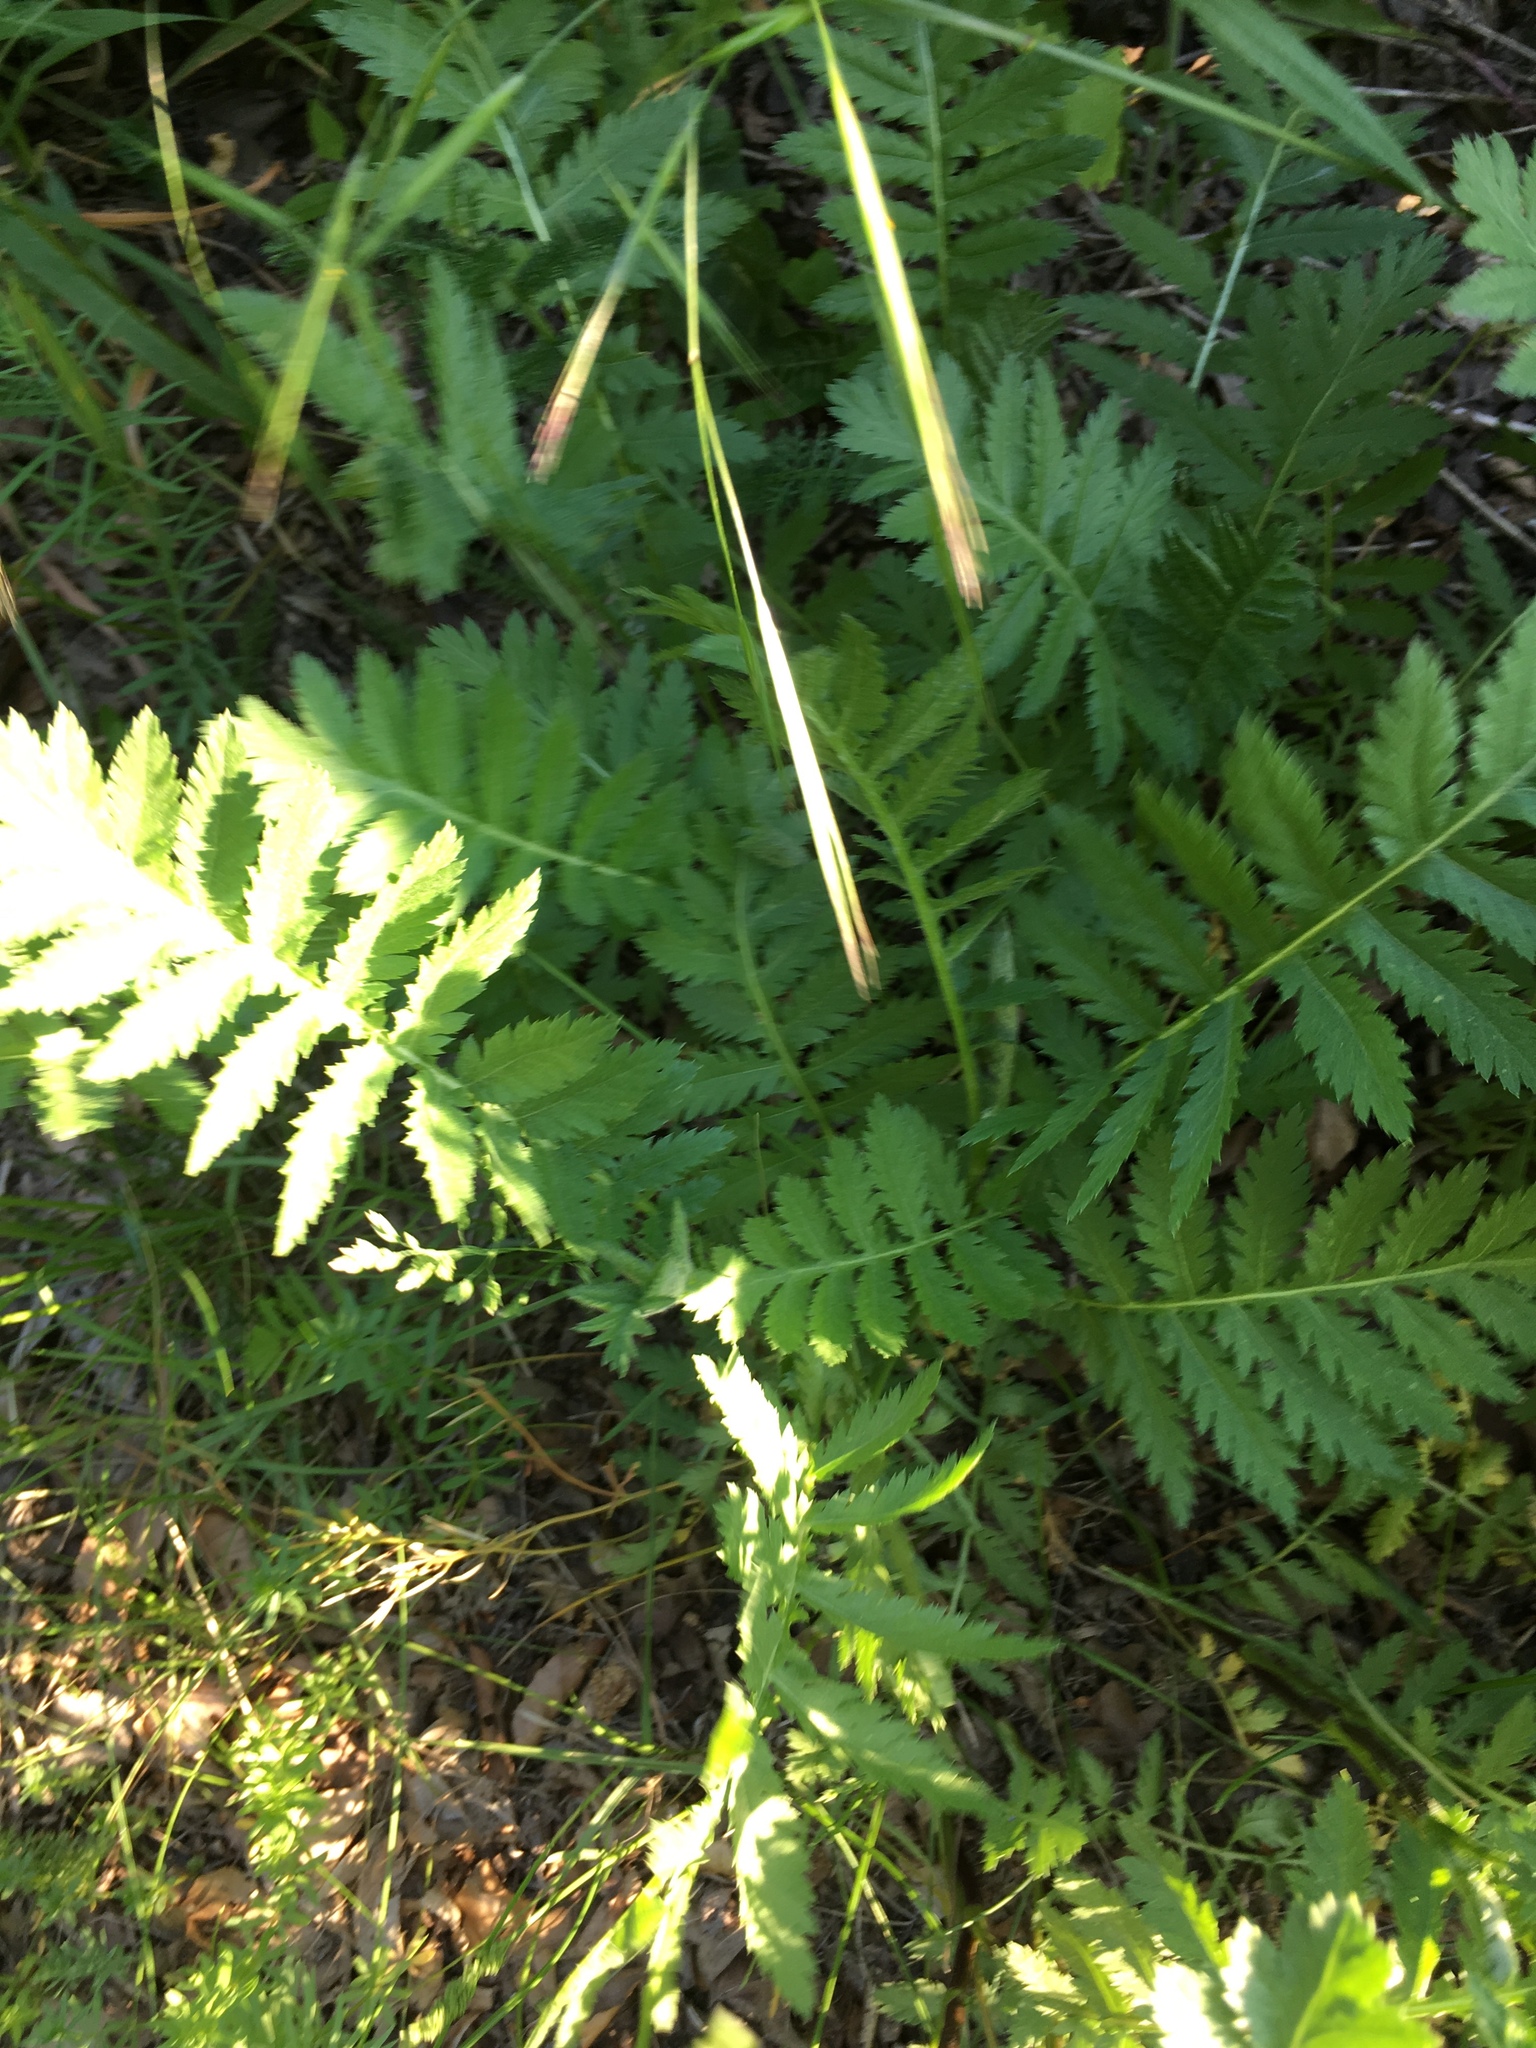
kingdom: Plantae
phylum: Tracheophyta
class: Magnoliopsida
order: Asterales
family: Asteraceae
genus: Tanacetum
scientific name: Tanacetum vulgare
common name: Common tansy
